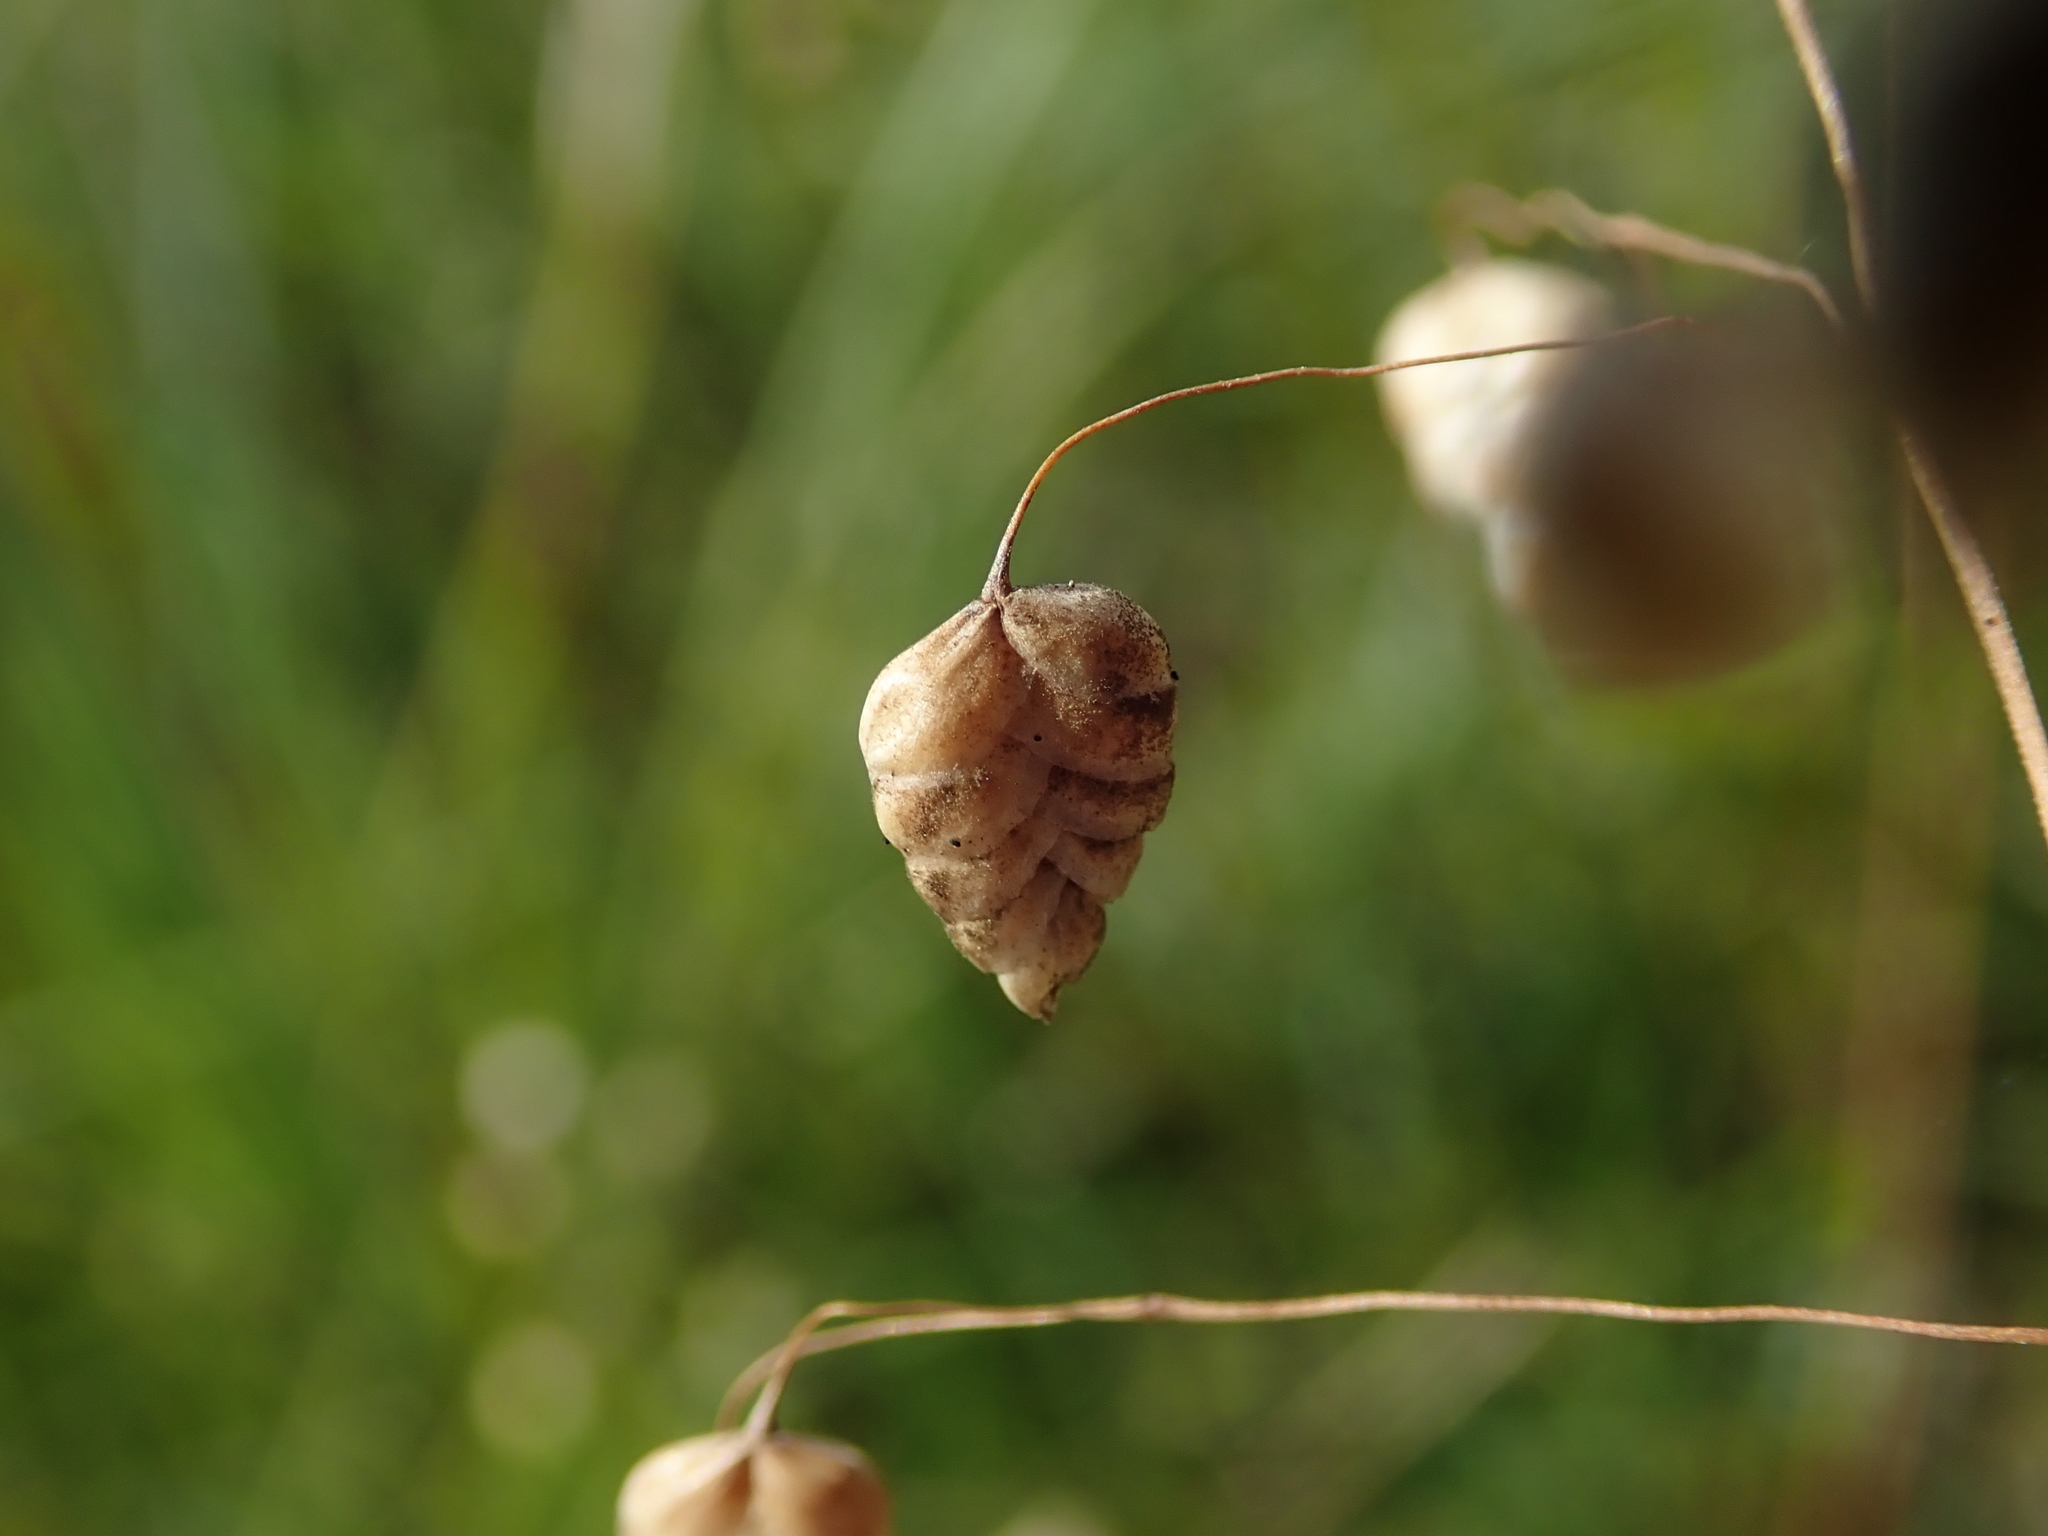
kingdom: Plantae
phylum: Tracheophyta
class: Liliopsida
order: Poales
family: Poaceae
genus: Briza
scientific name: Briza media
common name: Quaking grass
